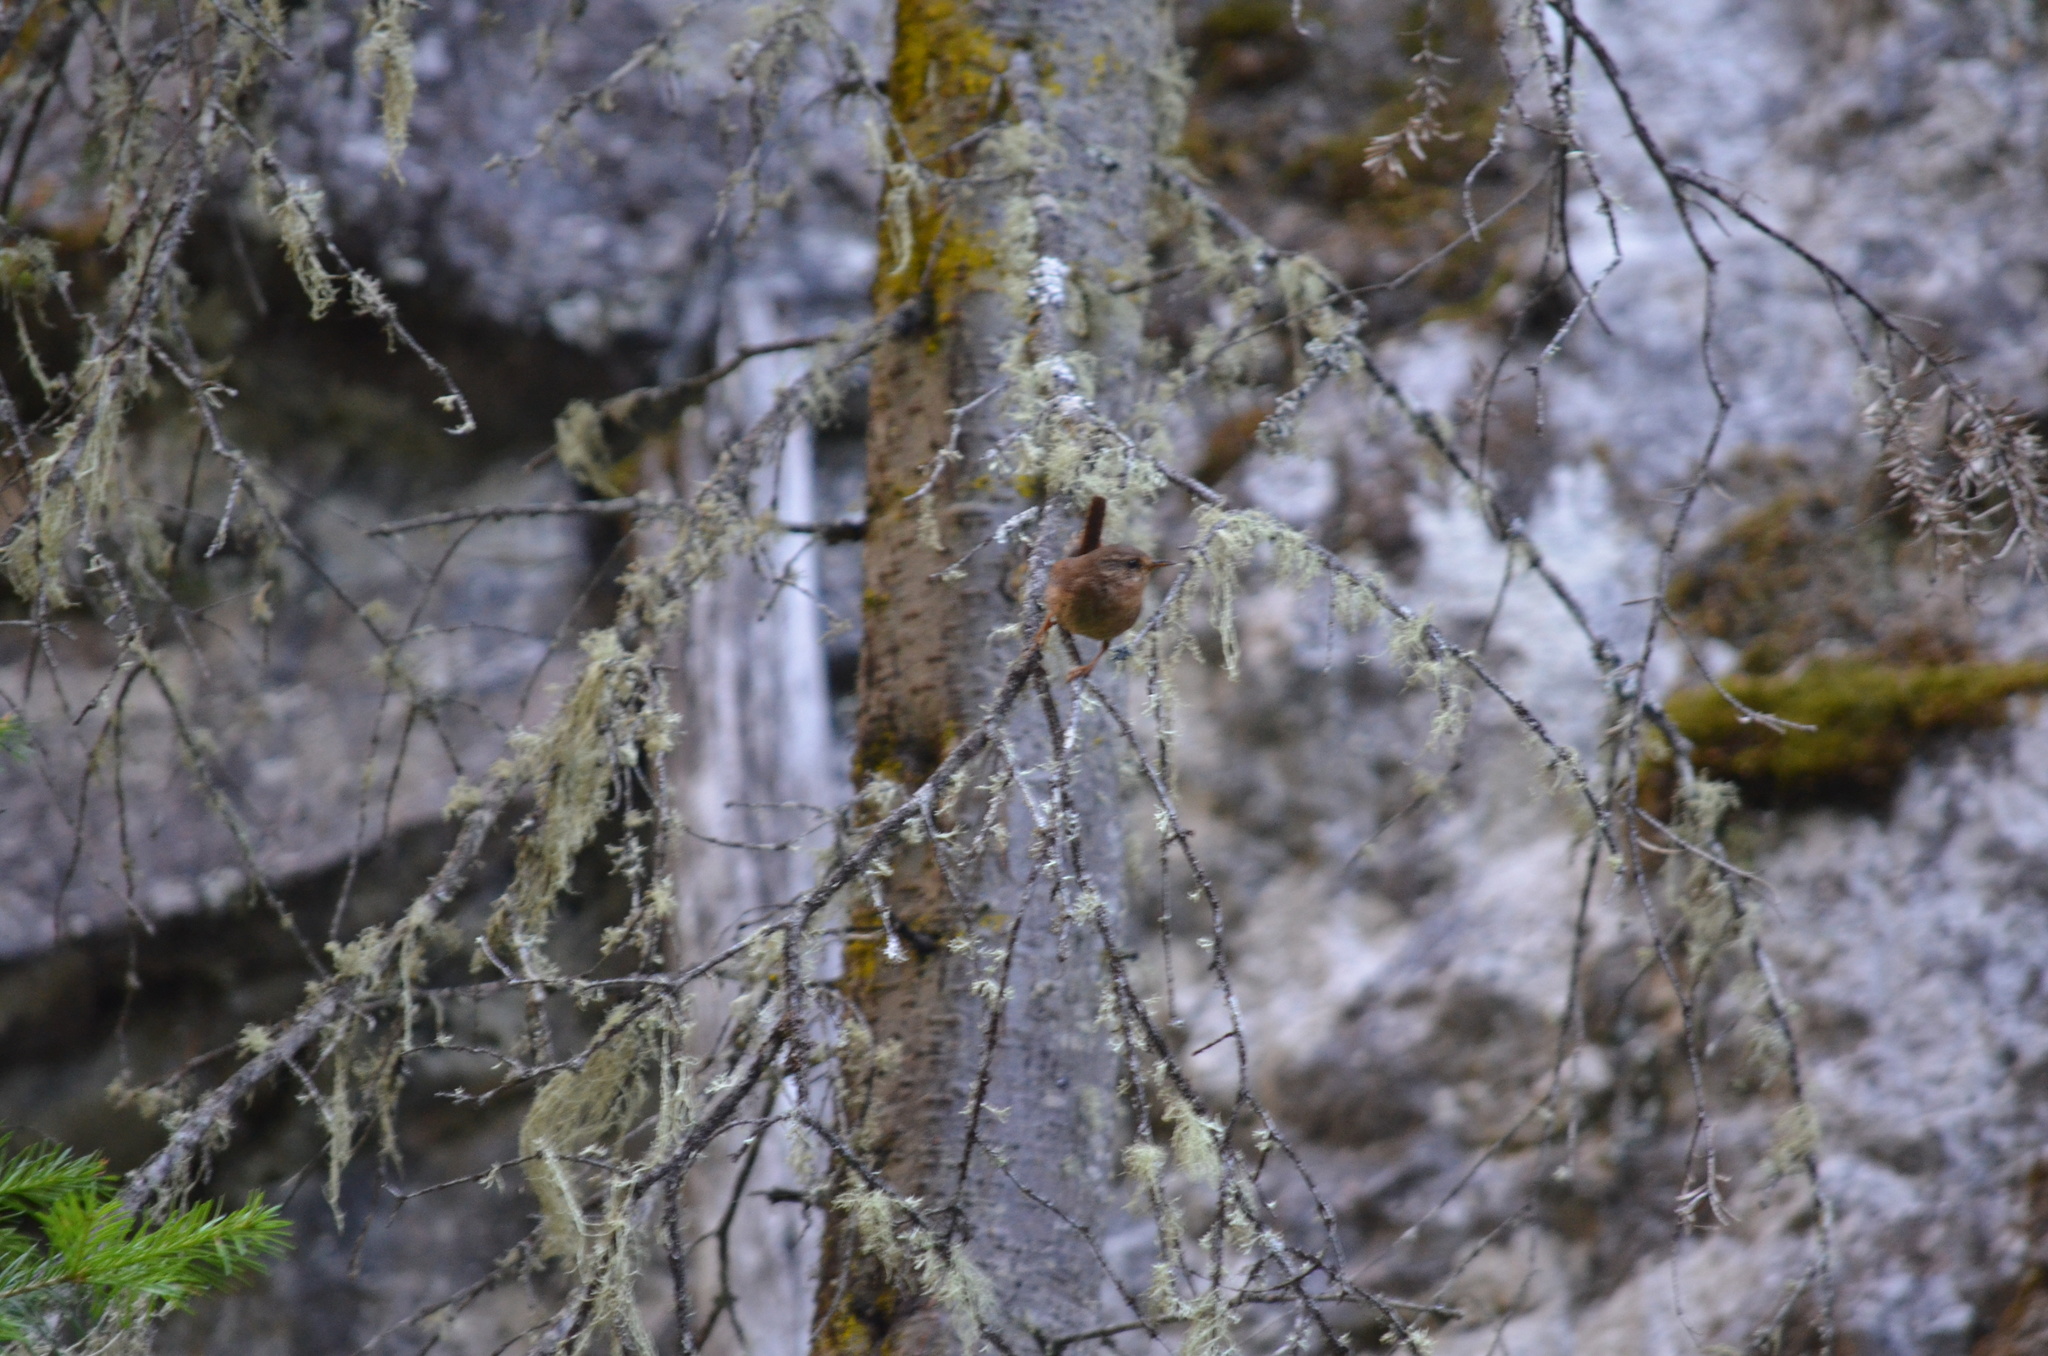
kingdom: Animalia
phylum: Chordata
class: Aves
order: Passeriformes
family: Troglodytidae
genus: Troglodytes
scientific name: Troglodytes pacificus
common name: Pacific wren
